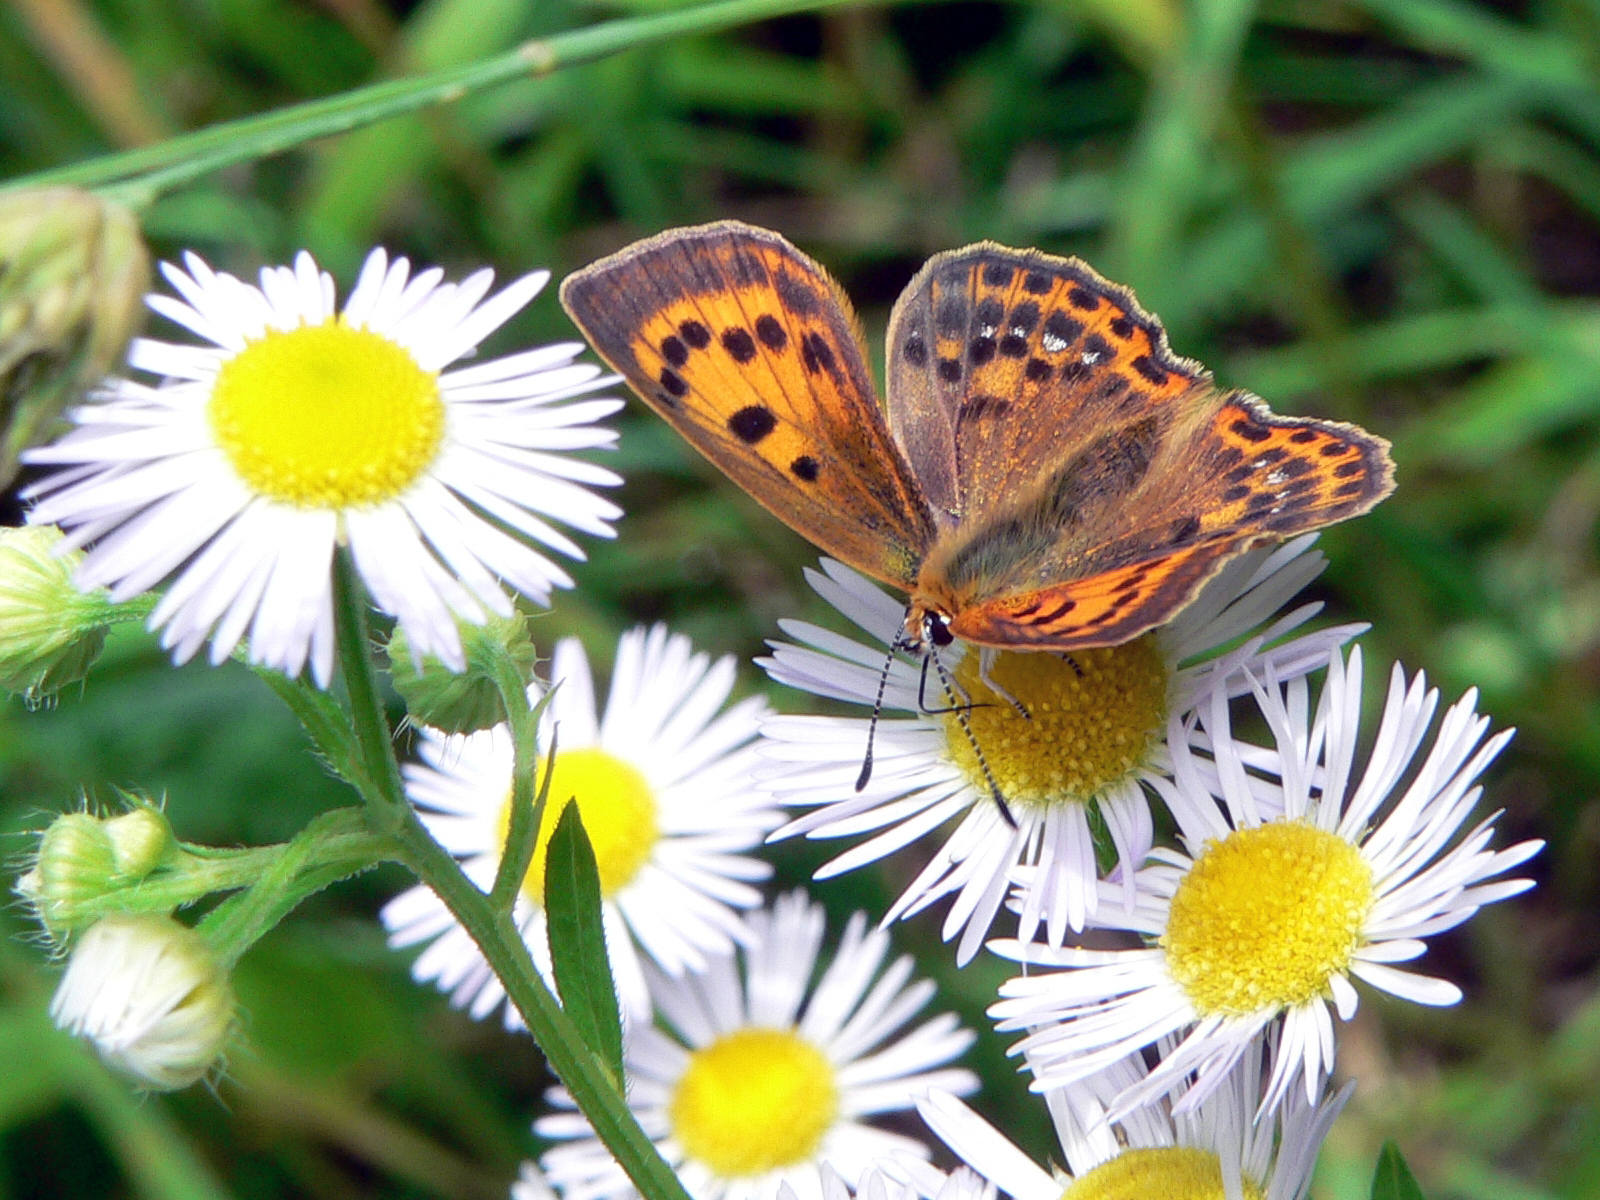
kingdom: Animalia
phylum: Arthropoda
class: Insecta
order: Lepidoptera
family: Lycaenidae
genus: Lycaena
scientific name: Lycaena virgaureae
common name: Scarce copper
